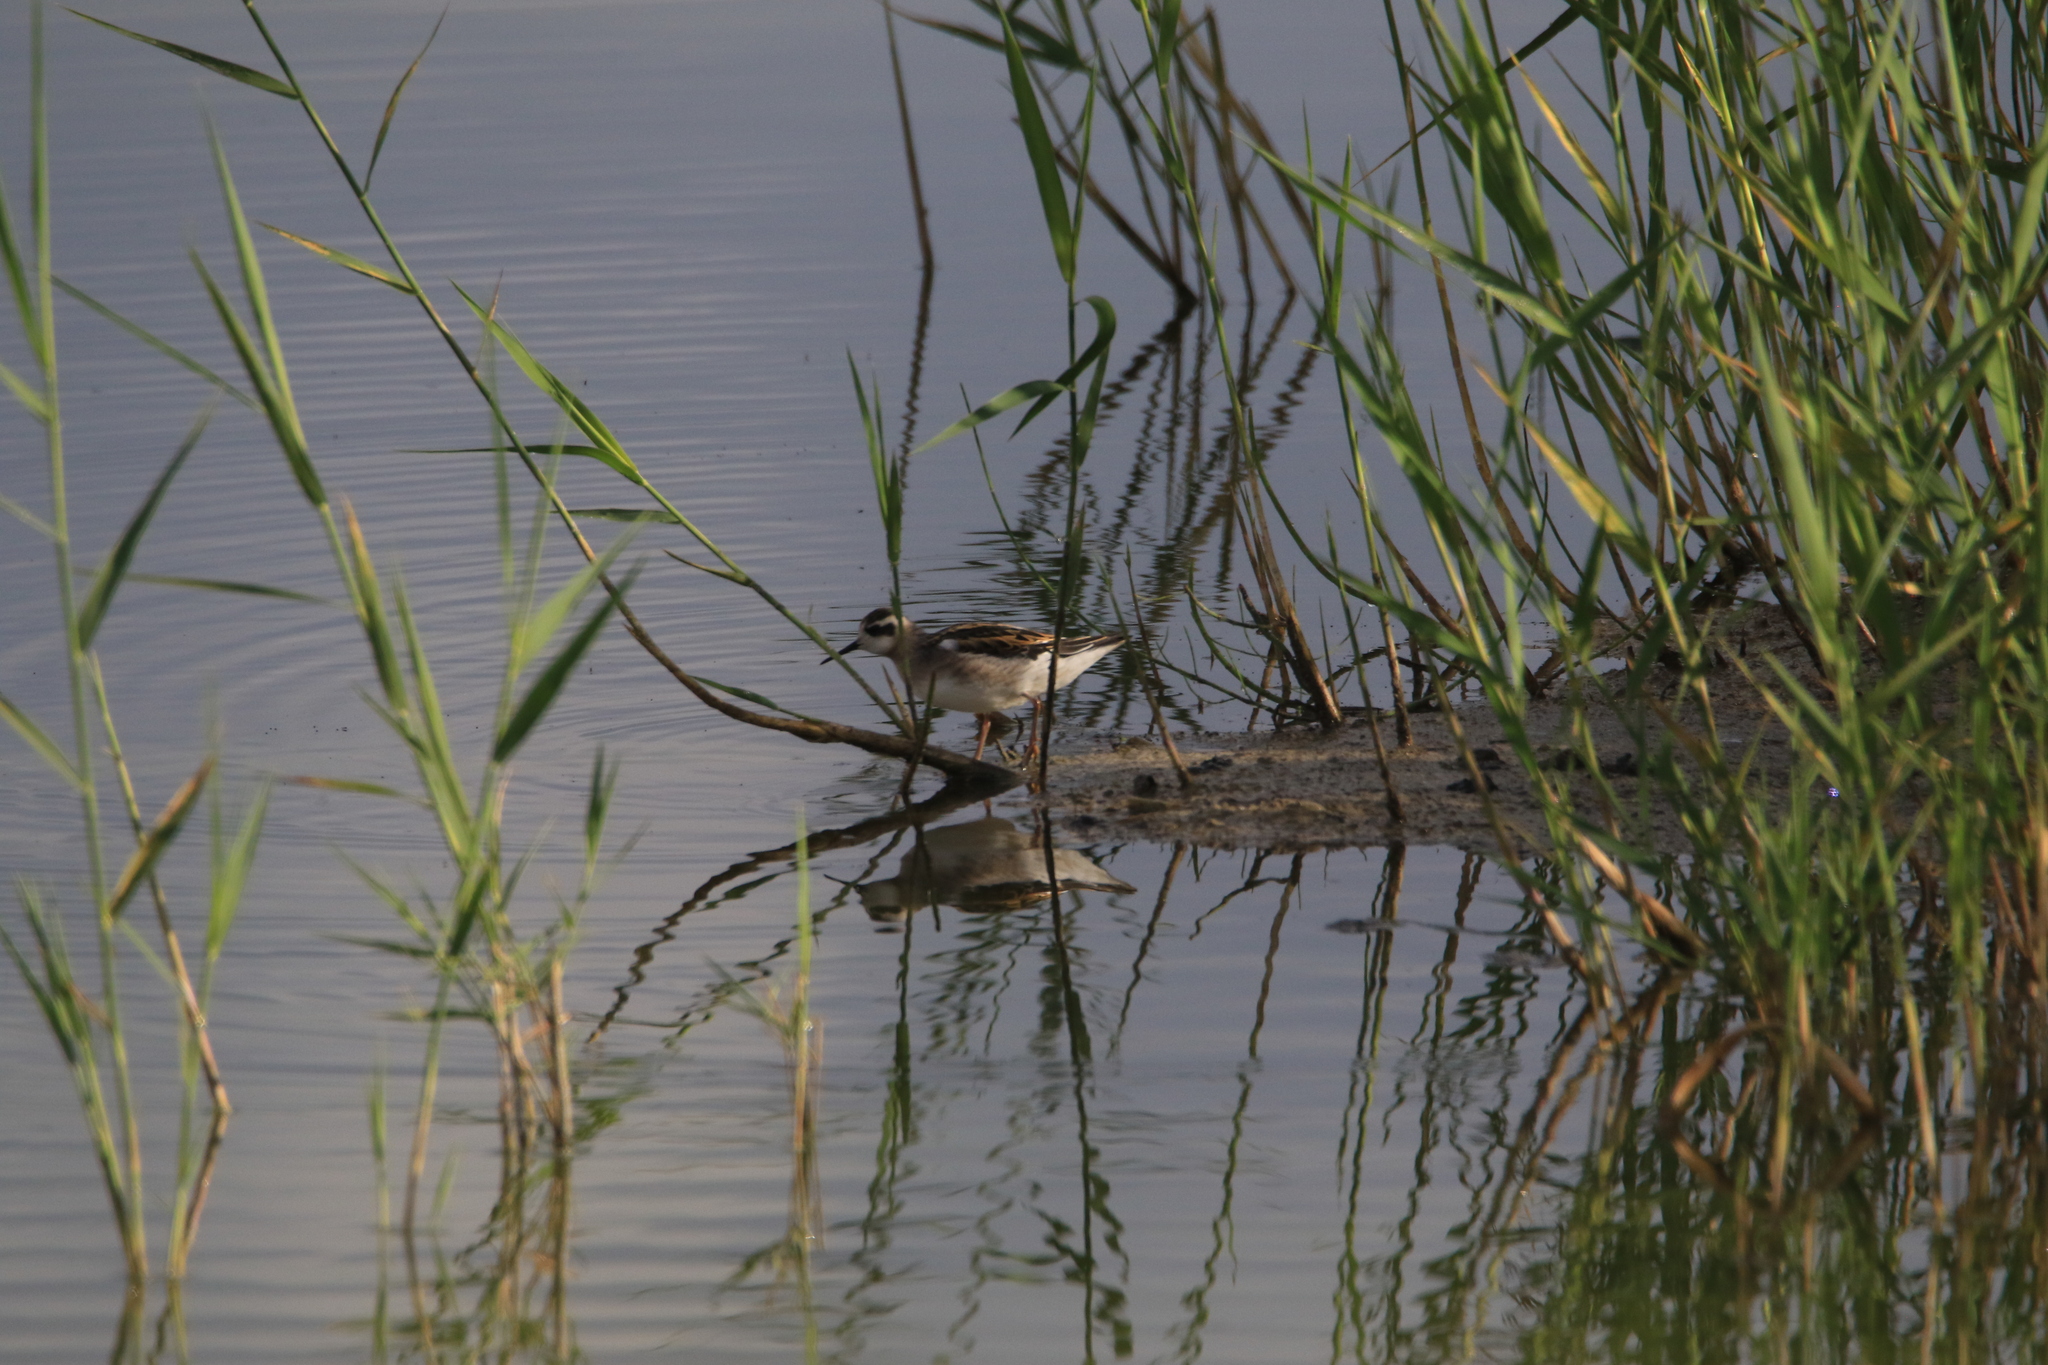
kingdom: Animalia
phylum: Chordata
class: Aves
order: Charadriiformes
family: Scolopacidae
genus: Phalaropus
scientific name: Phalaropus lobatus
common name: Red-necked phalarope
